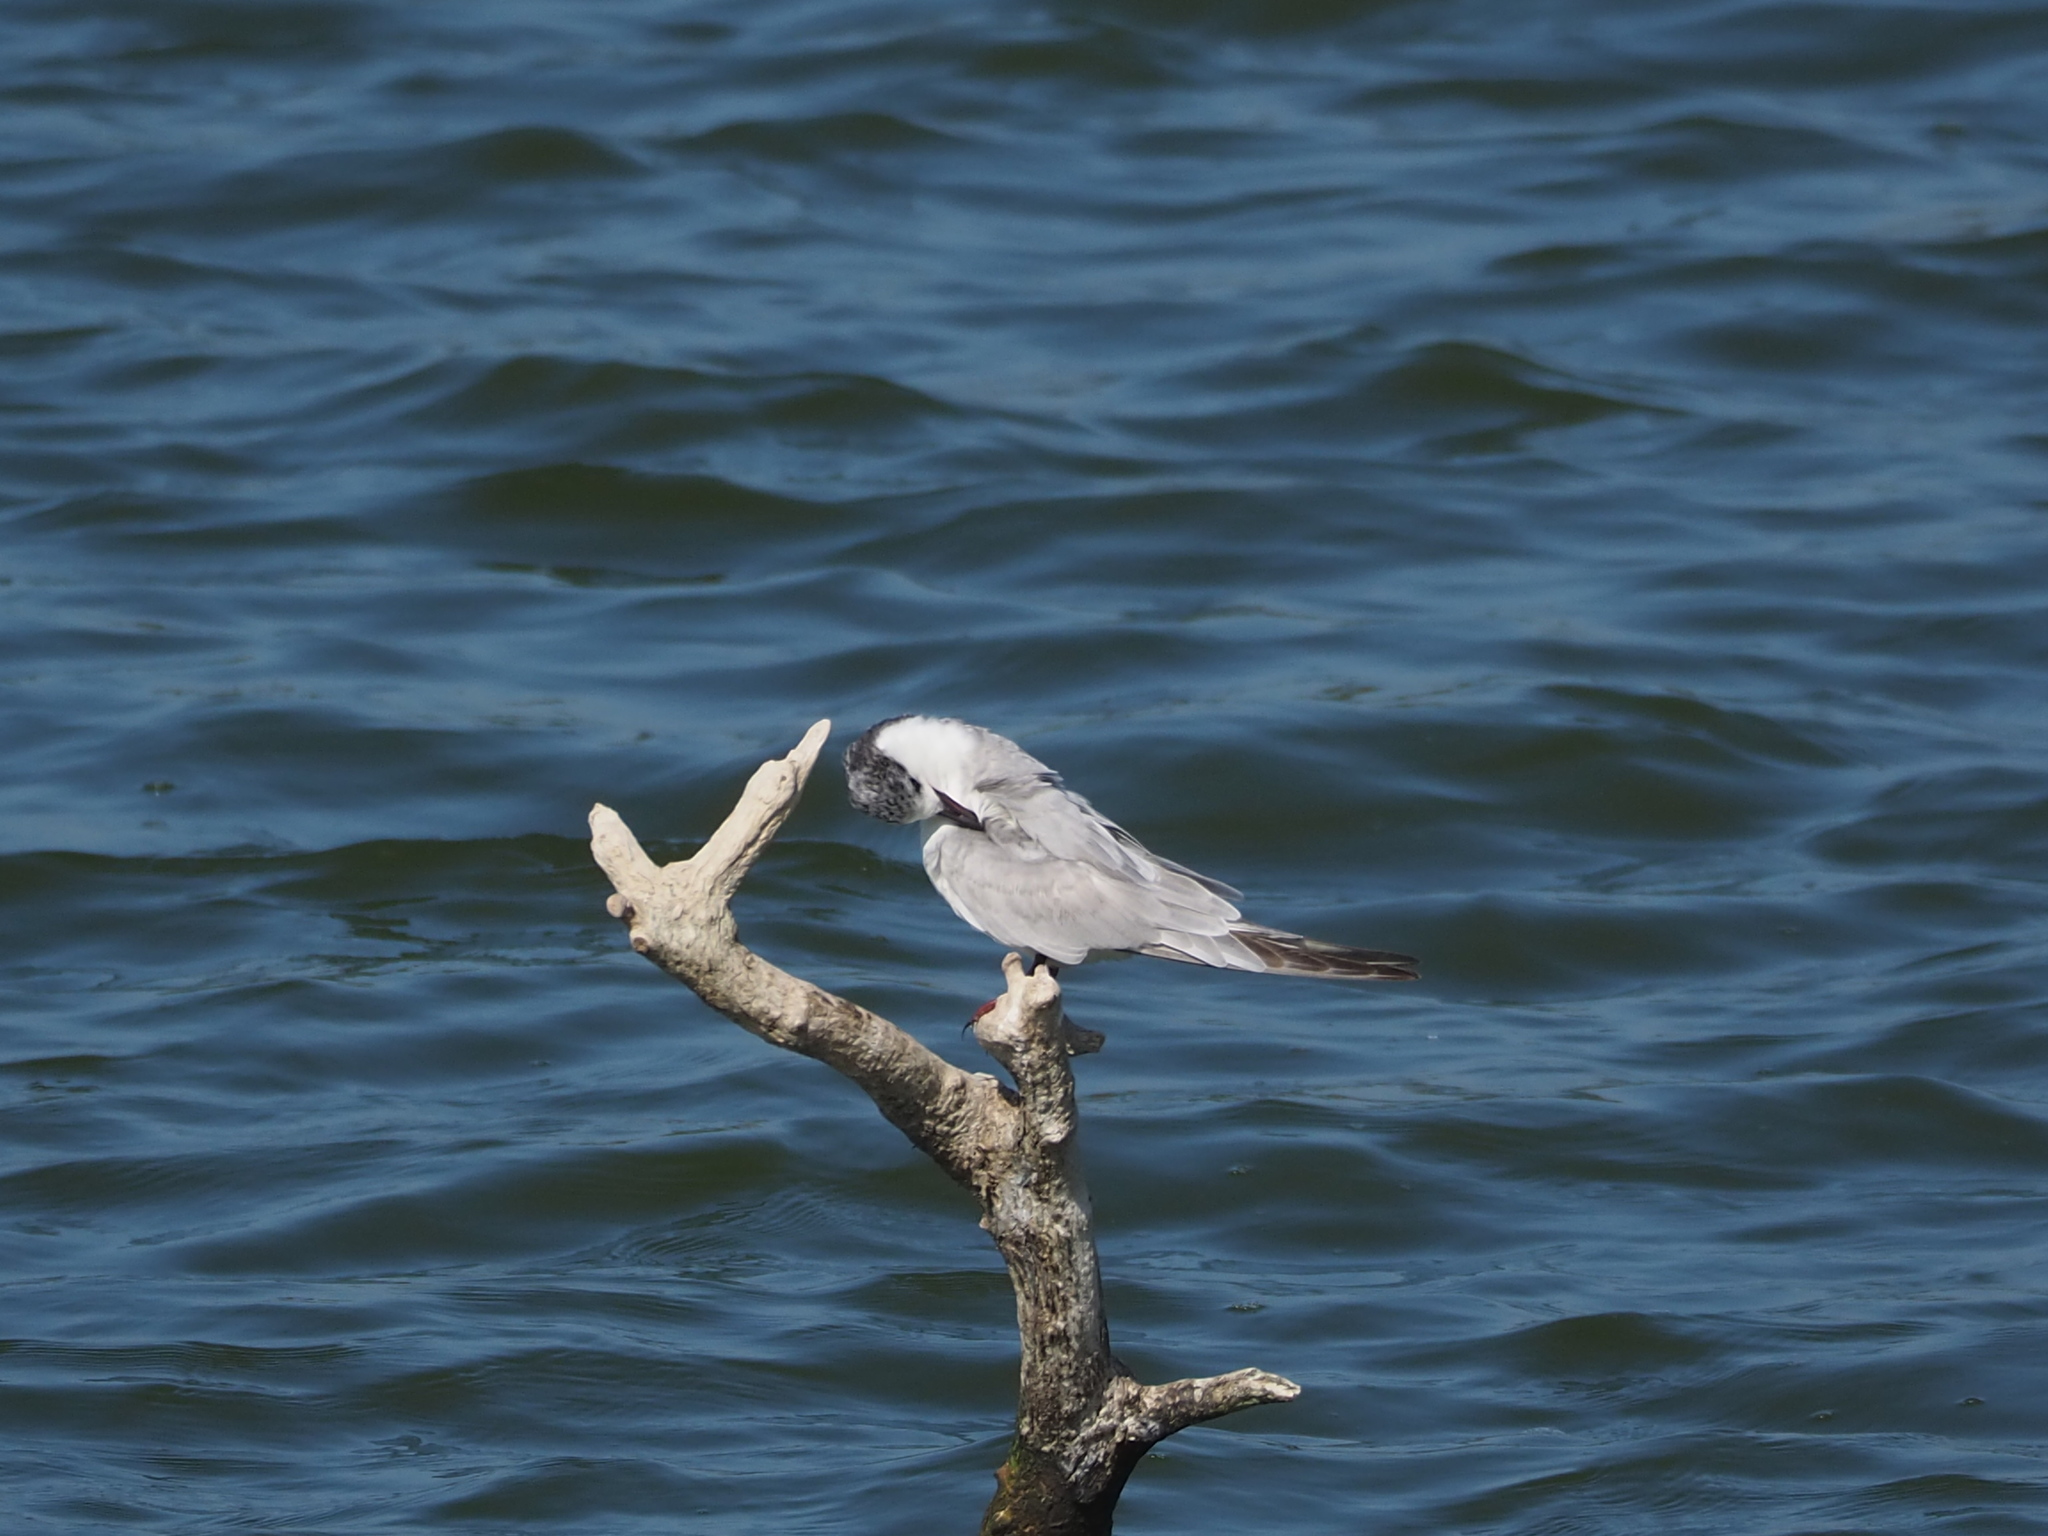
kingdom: Animalia
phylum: Chordata
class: Aves
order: Charadriiformes
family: Laridae
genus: Chlidonias
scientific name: Chlidonias hybrida
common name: Whiskered tern
